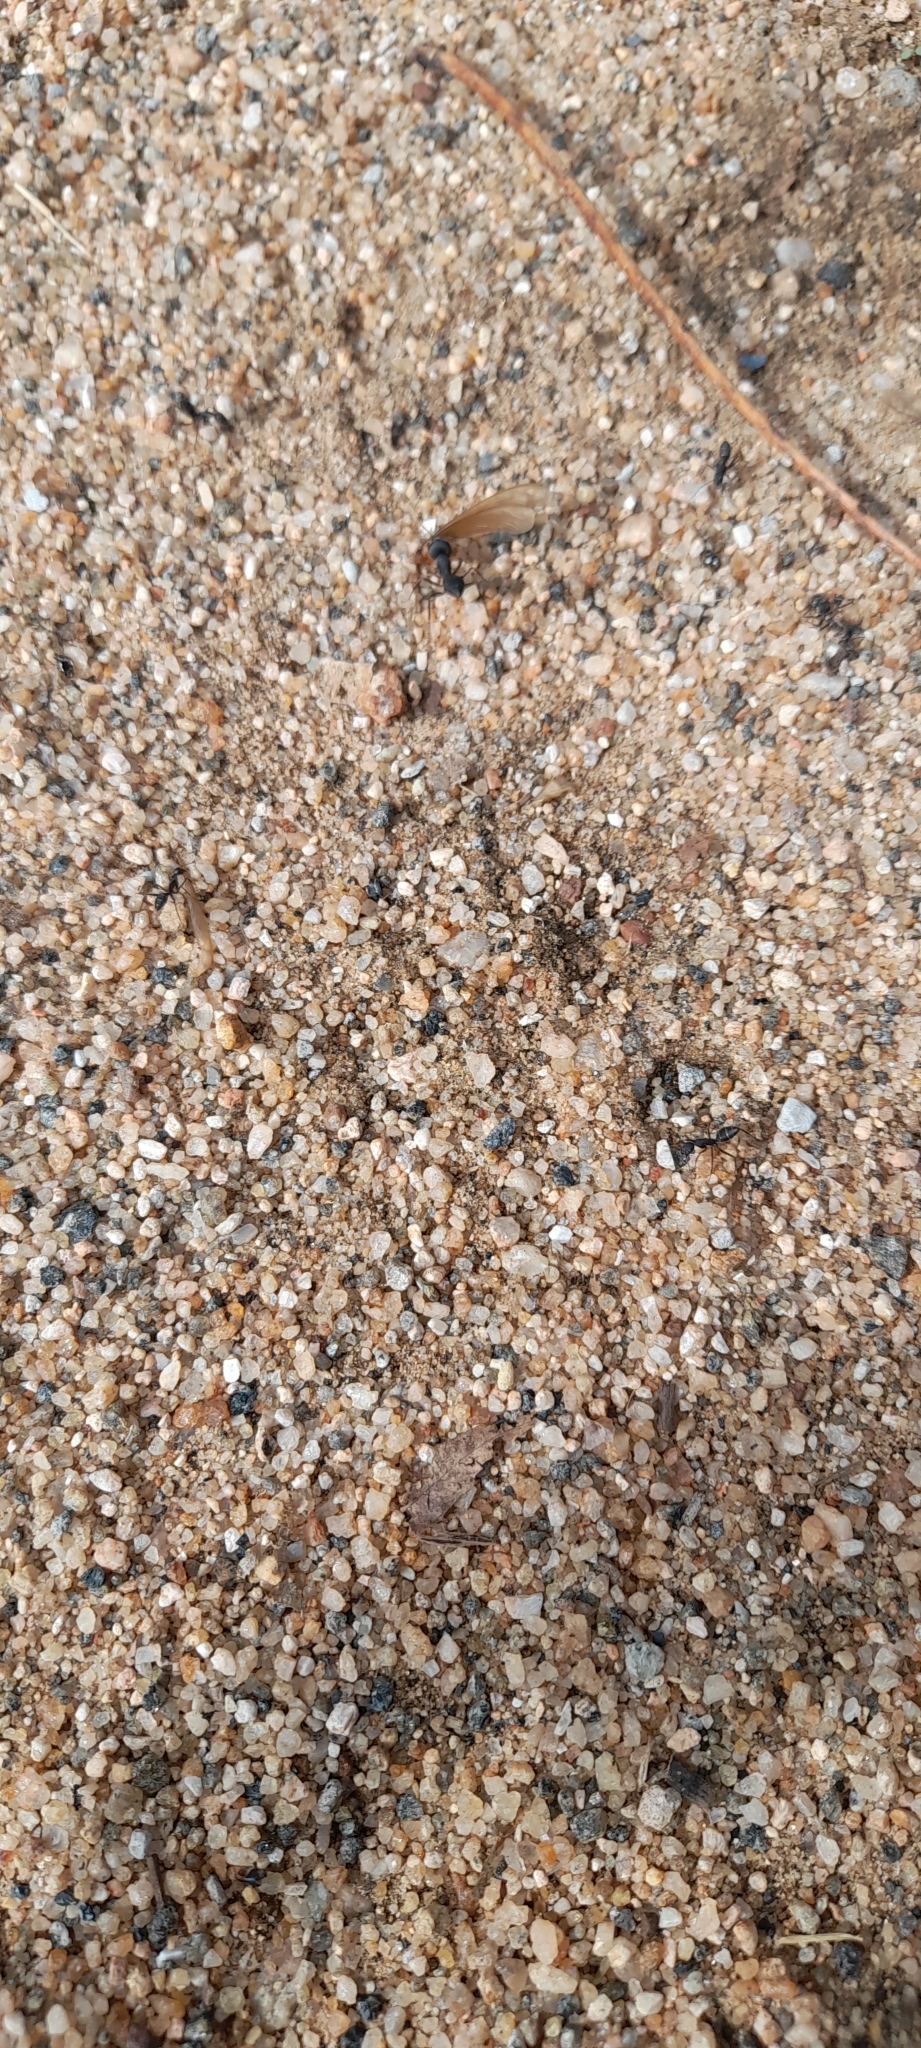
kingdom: Animalia
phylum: Arthropoda
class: Insecta
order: Hymenoptera
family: Formicidae
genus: Camponotus
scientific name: Camponotus compressus
